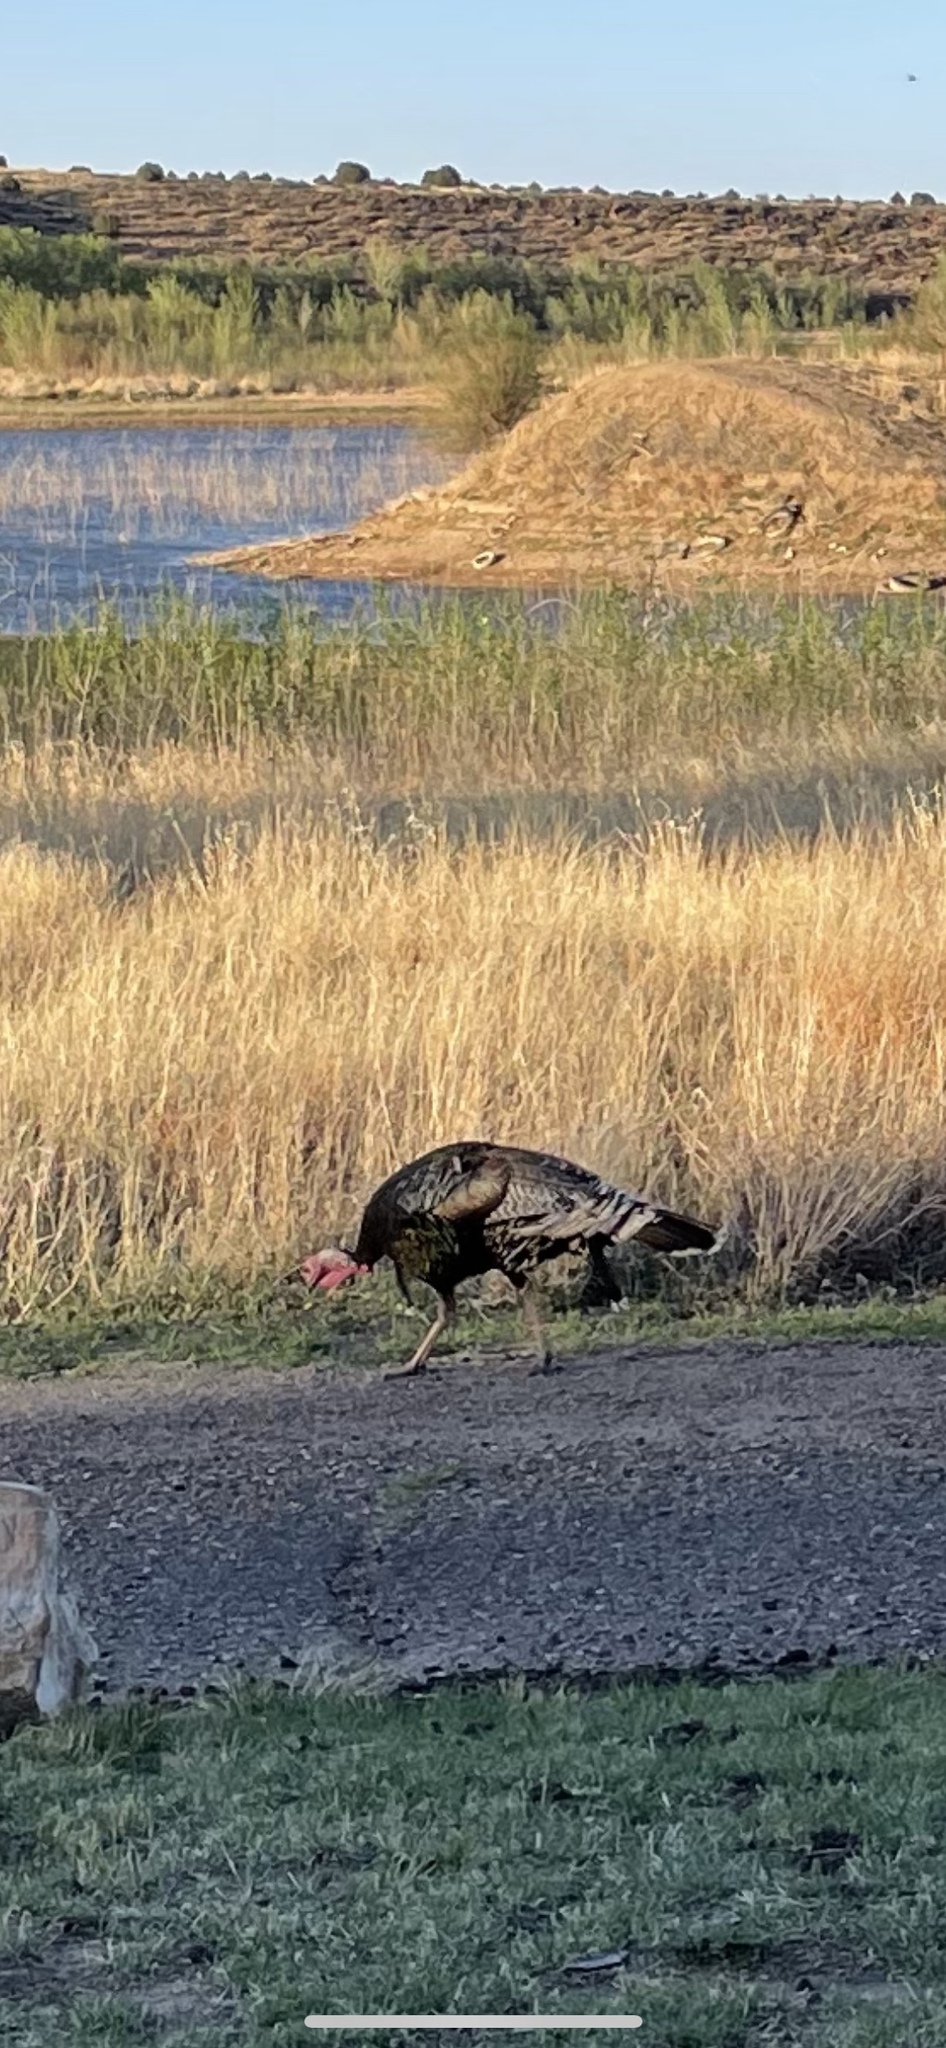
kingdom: Animalia
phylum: Chordata
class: Aves
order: Galliformes
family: Phasianidae
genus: Meleagris
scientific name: Meleagris gallopavo
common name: Wild turkey
